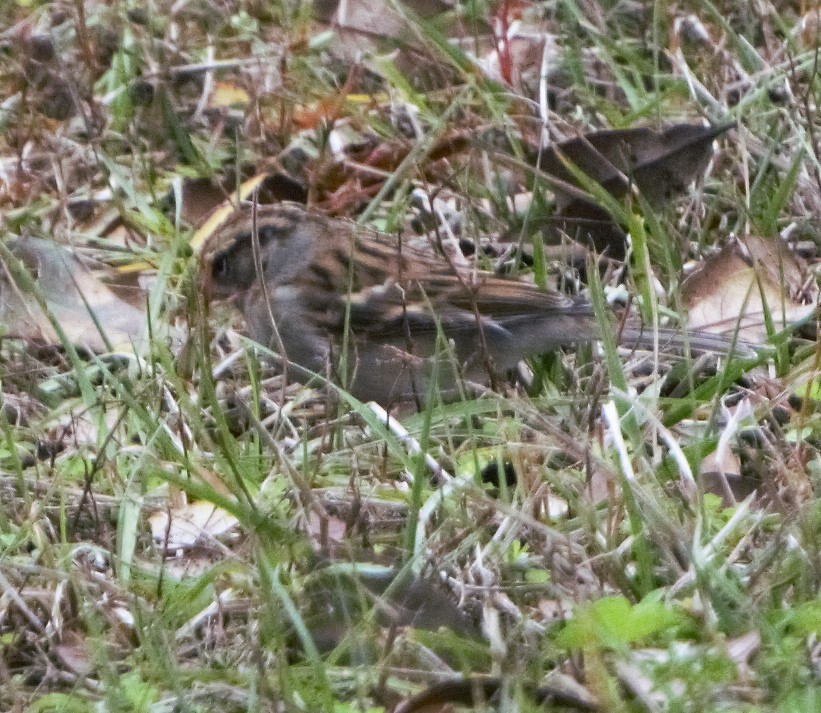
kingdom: Animalia
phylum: Chordata
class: Aves
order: Passeriformes
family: Passerellidae
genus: Spizella
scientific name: Spizella passerina
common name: Chipping sparrow
